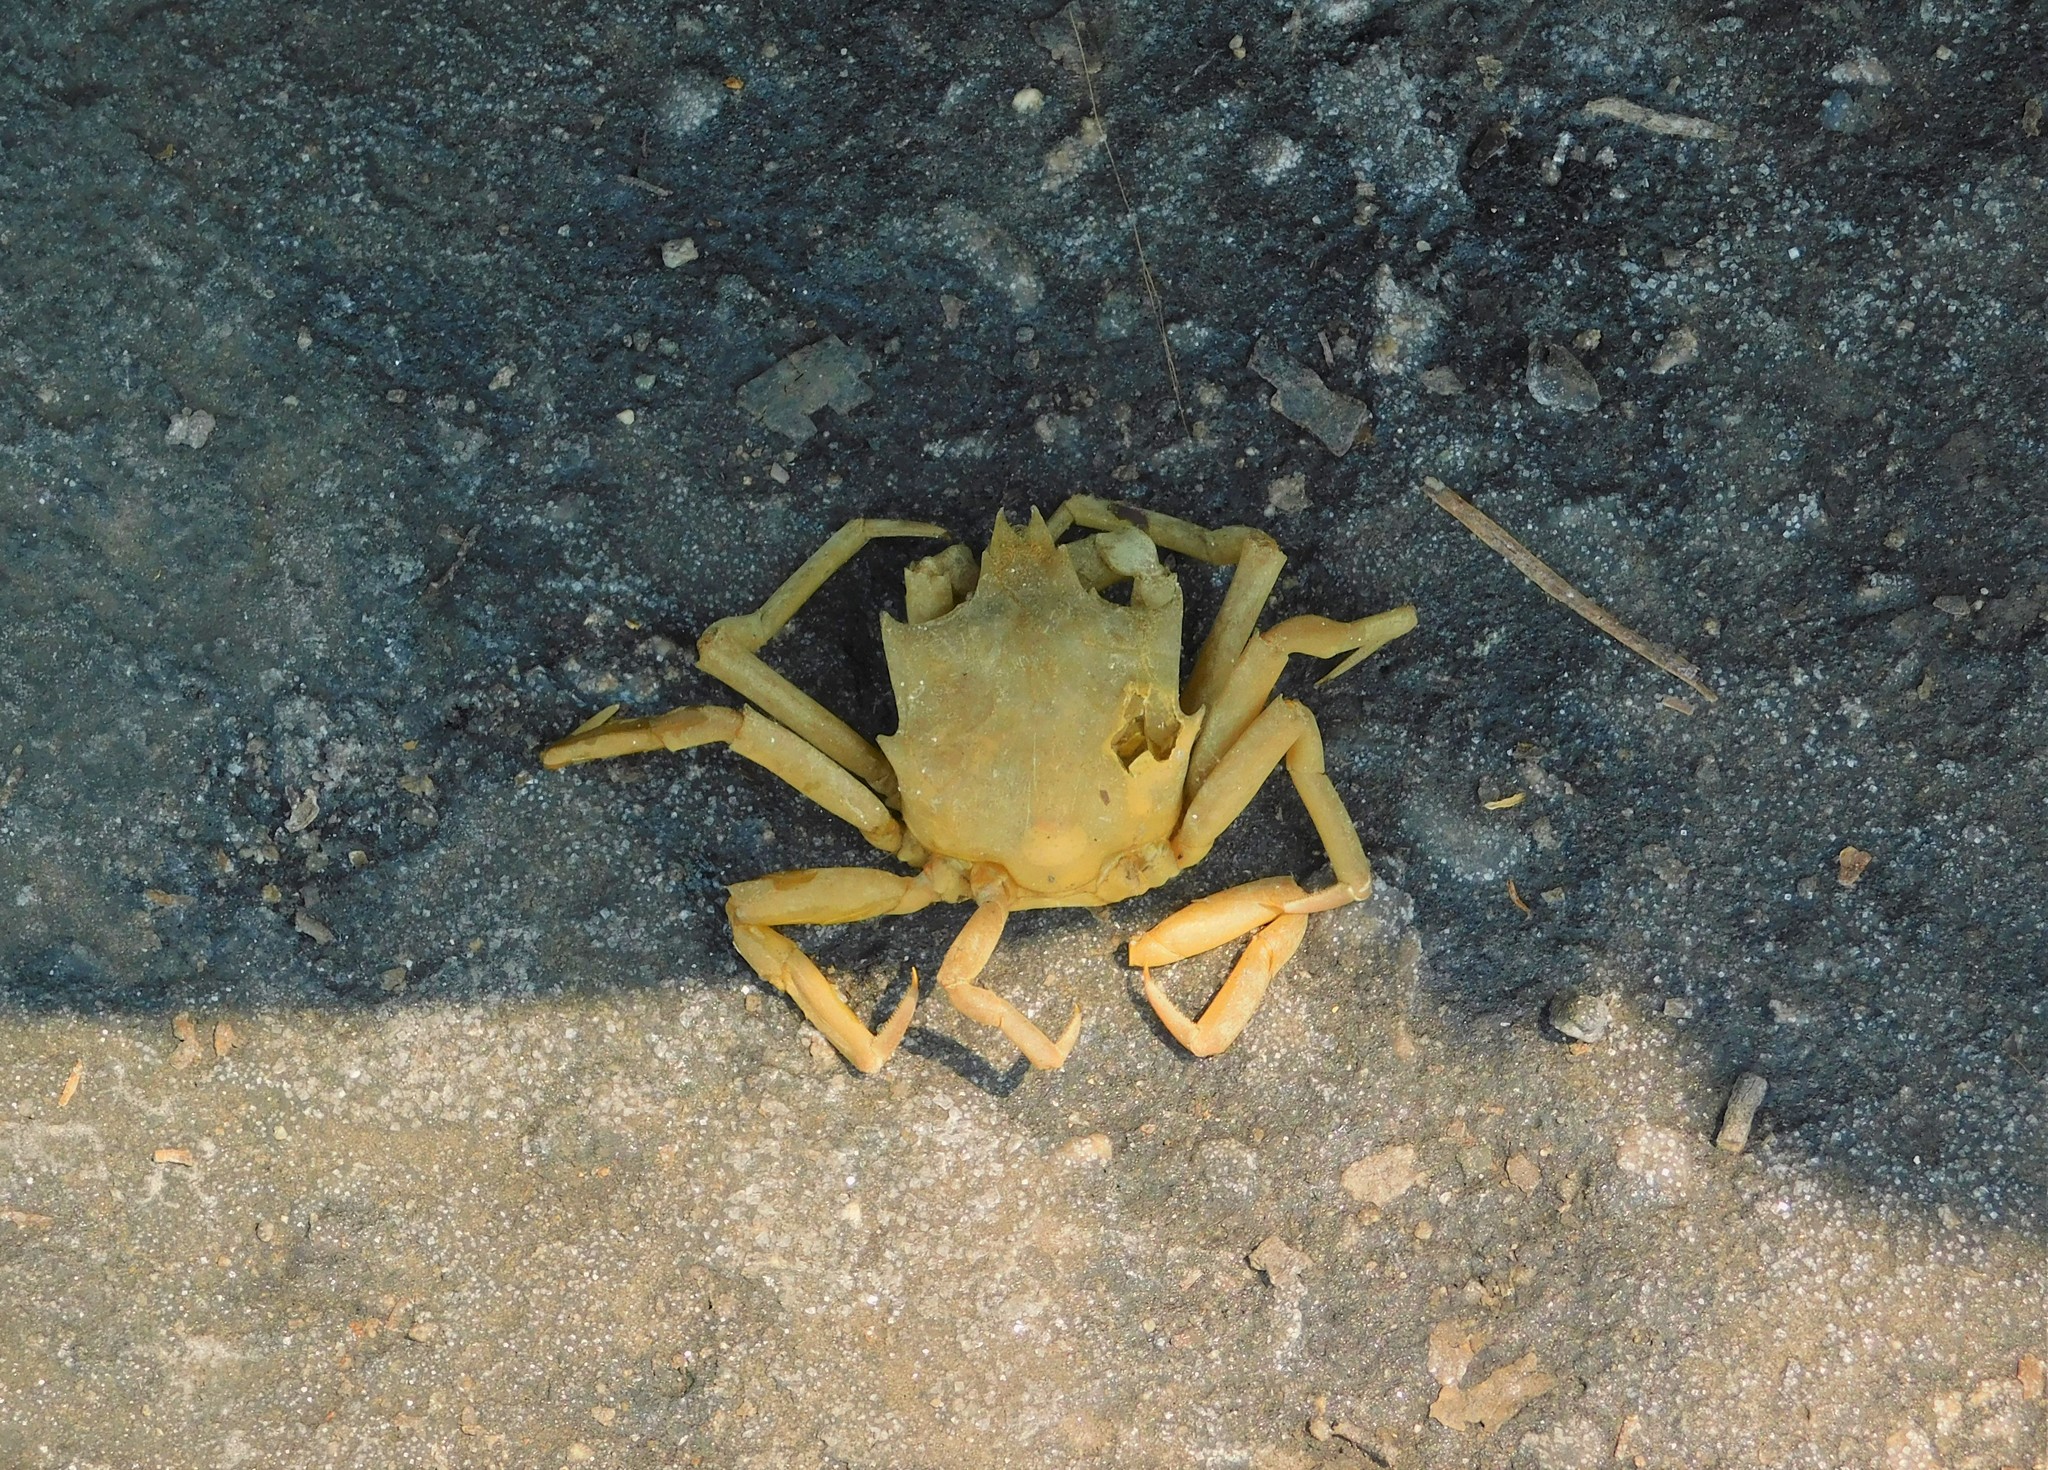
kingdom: Animalia
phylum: Arthropoda
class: Malacostraca
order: Decapoda
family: Epialtidae
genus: Pugettia
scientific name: Pugettia producta
